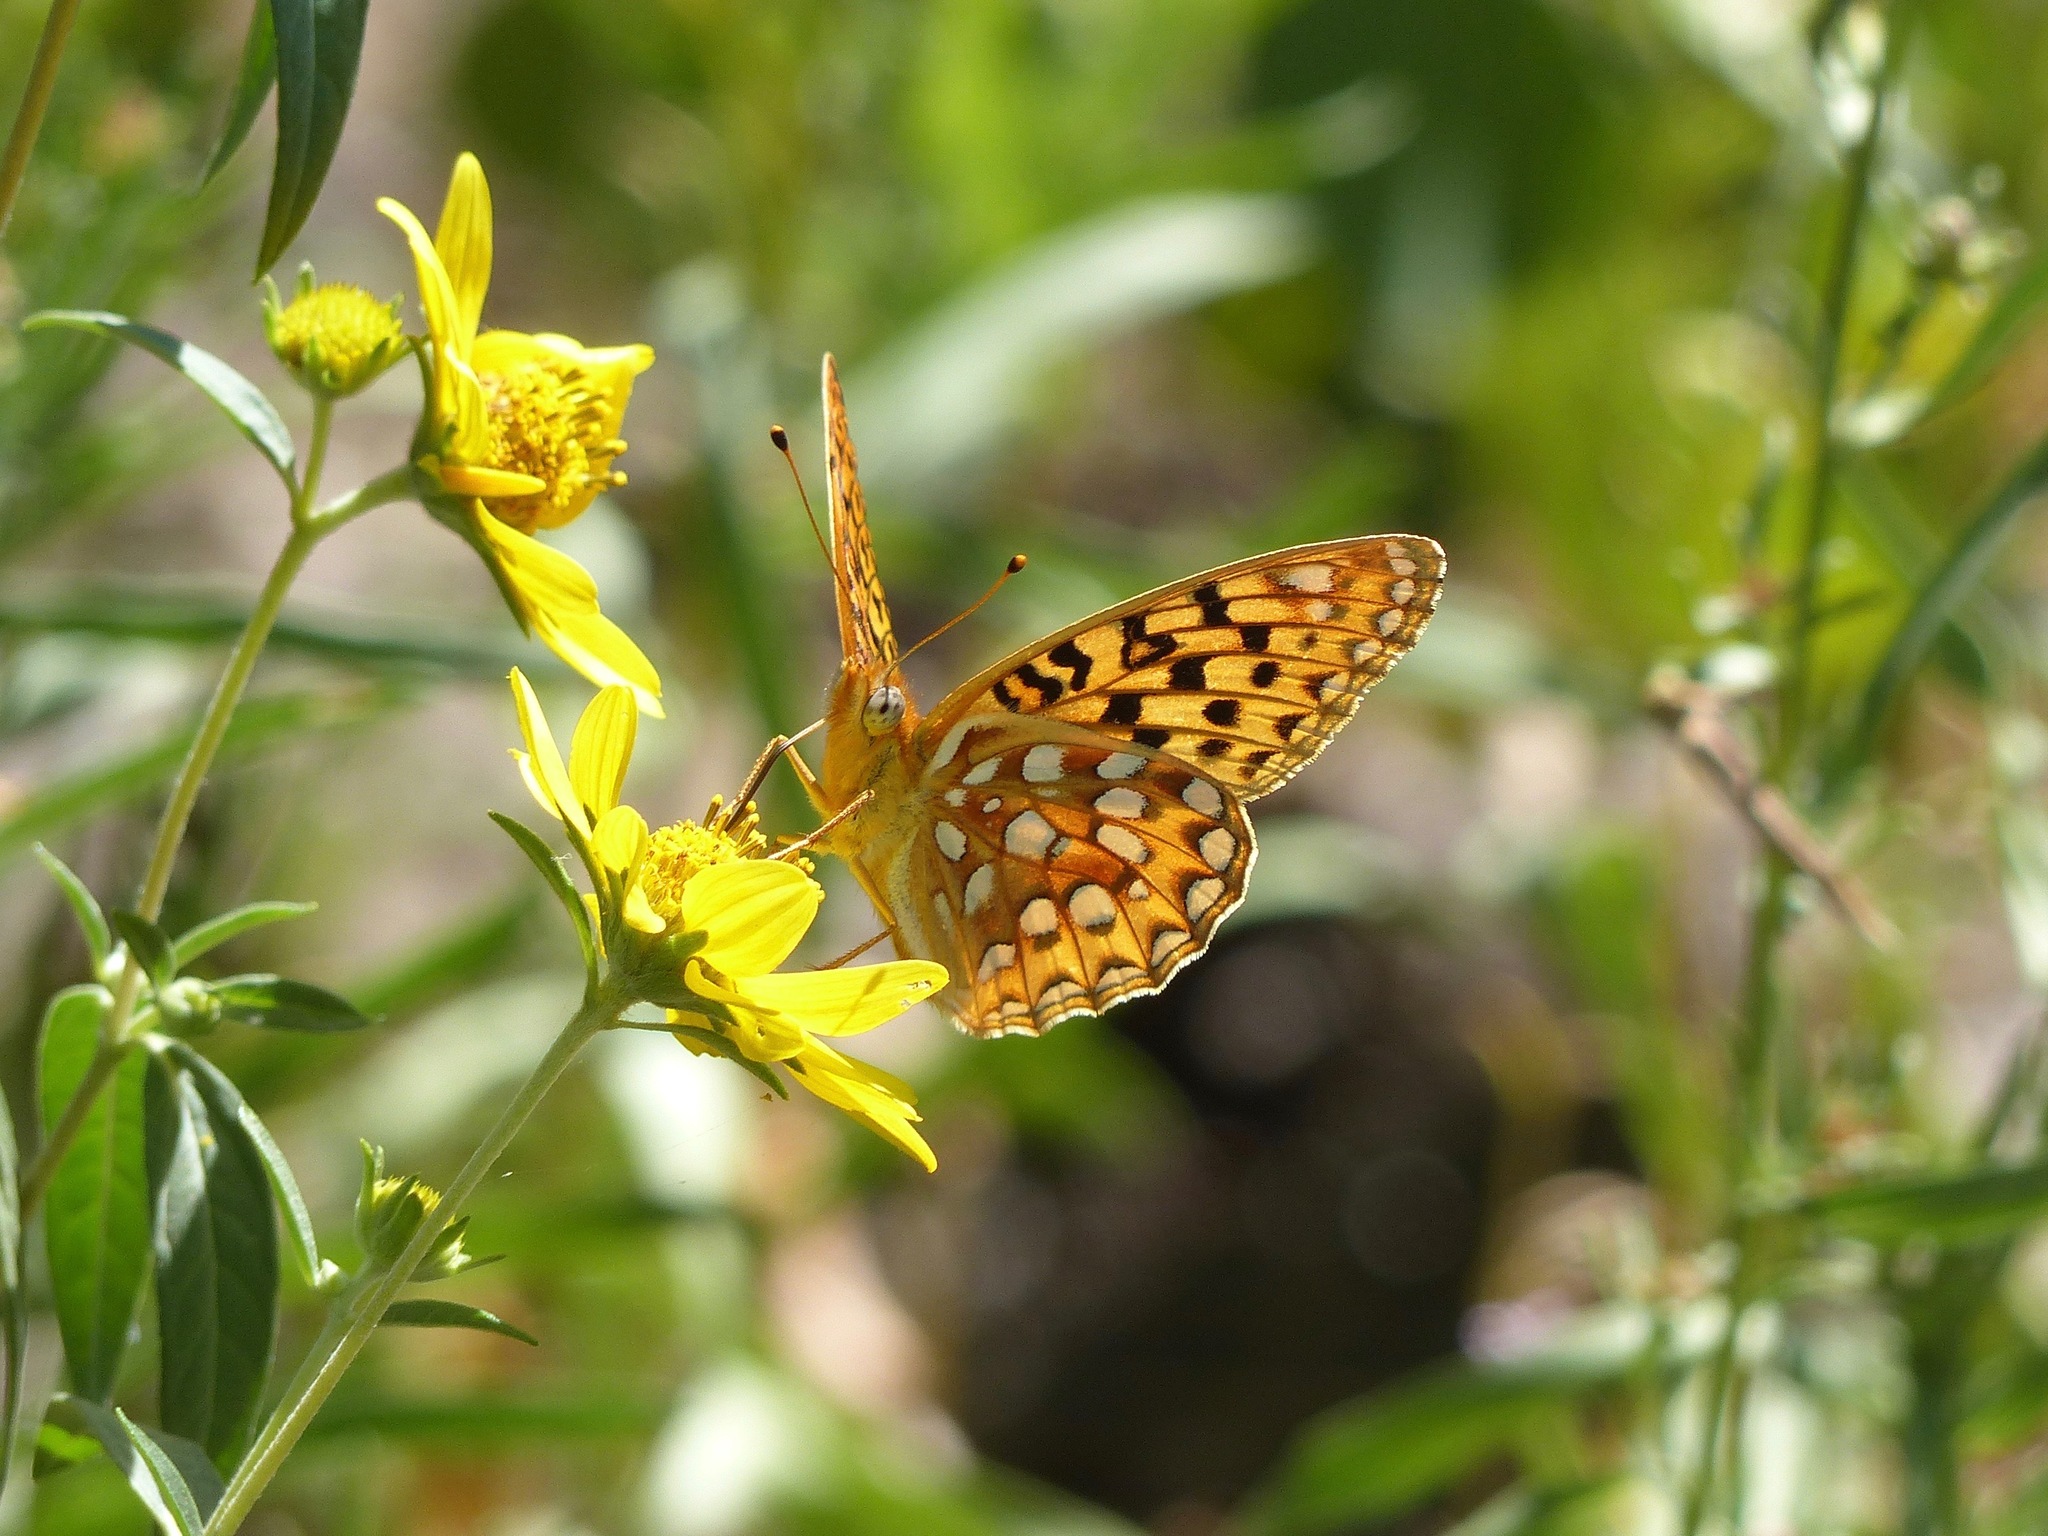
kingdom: Animalia
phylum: Arthropoda
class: Insecta
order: Lepidoptera
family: Nymphalidae
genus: Speyeria
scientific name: Speyeria zerene
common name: Zerene fritillary
